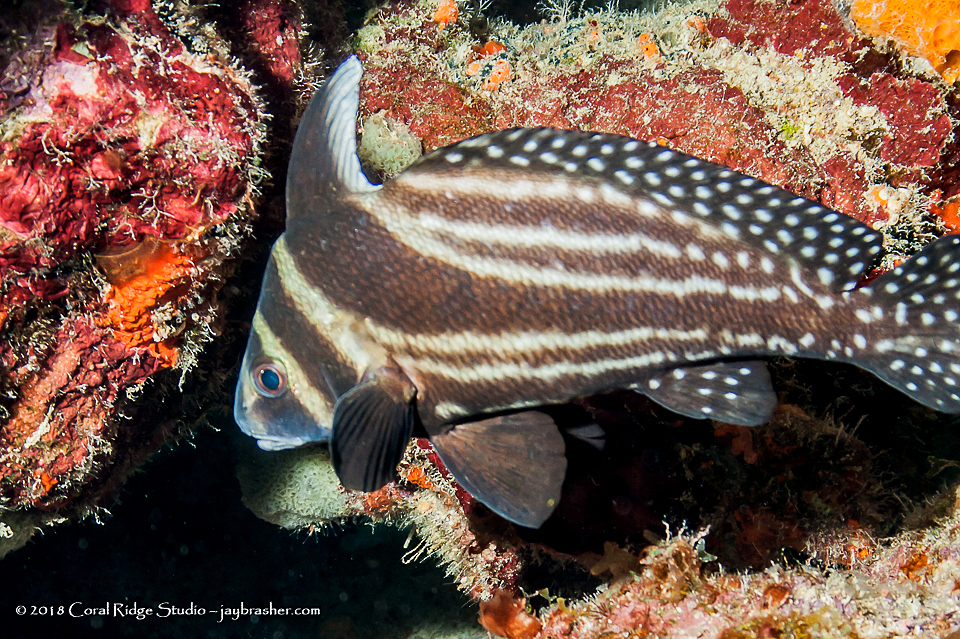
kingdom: Animalia
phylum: Chordata
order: Perciformes
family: Sciaenidae
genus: Equetus
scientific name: Equetus punctatus
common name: Spotted drum
